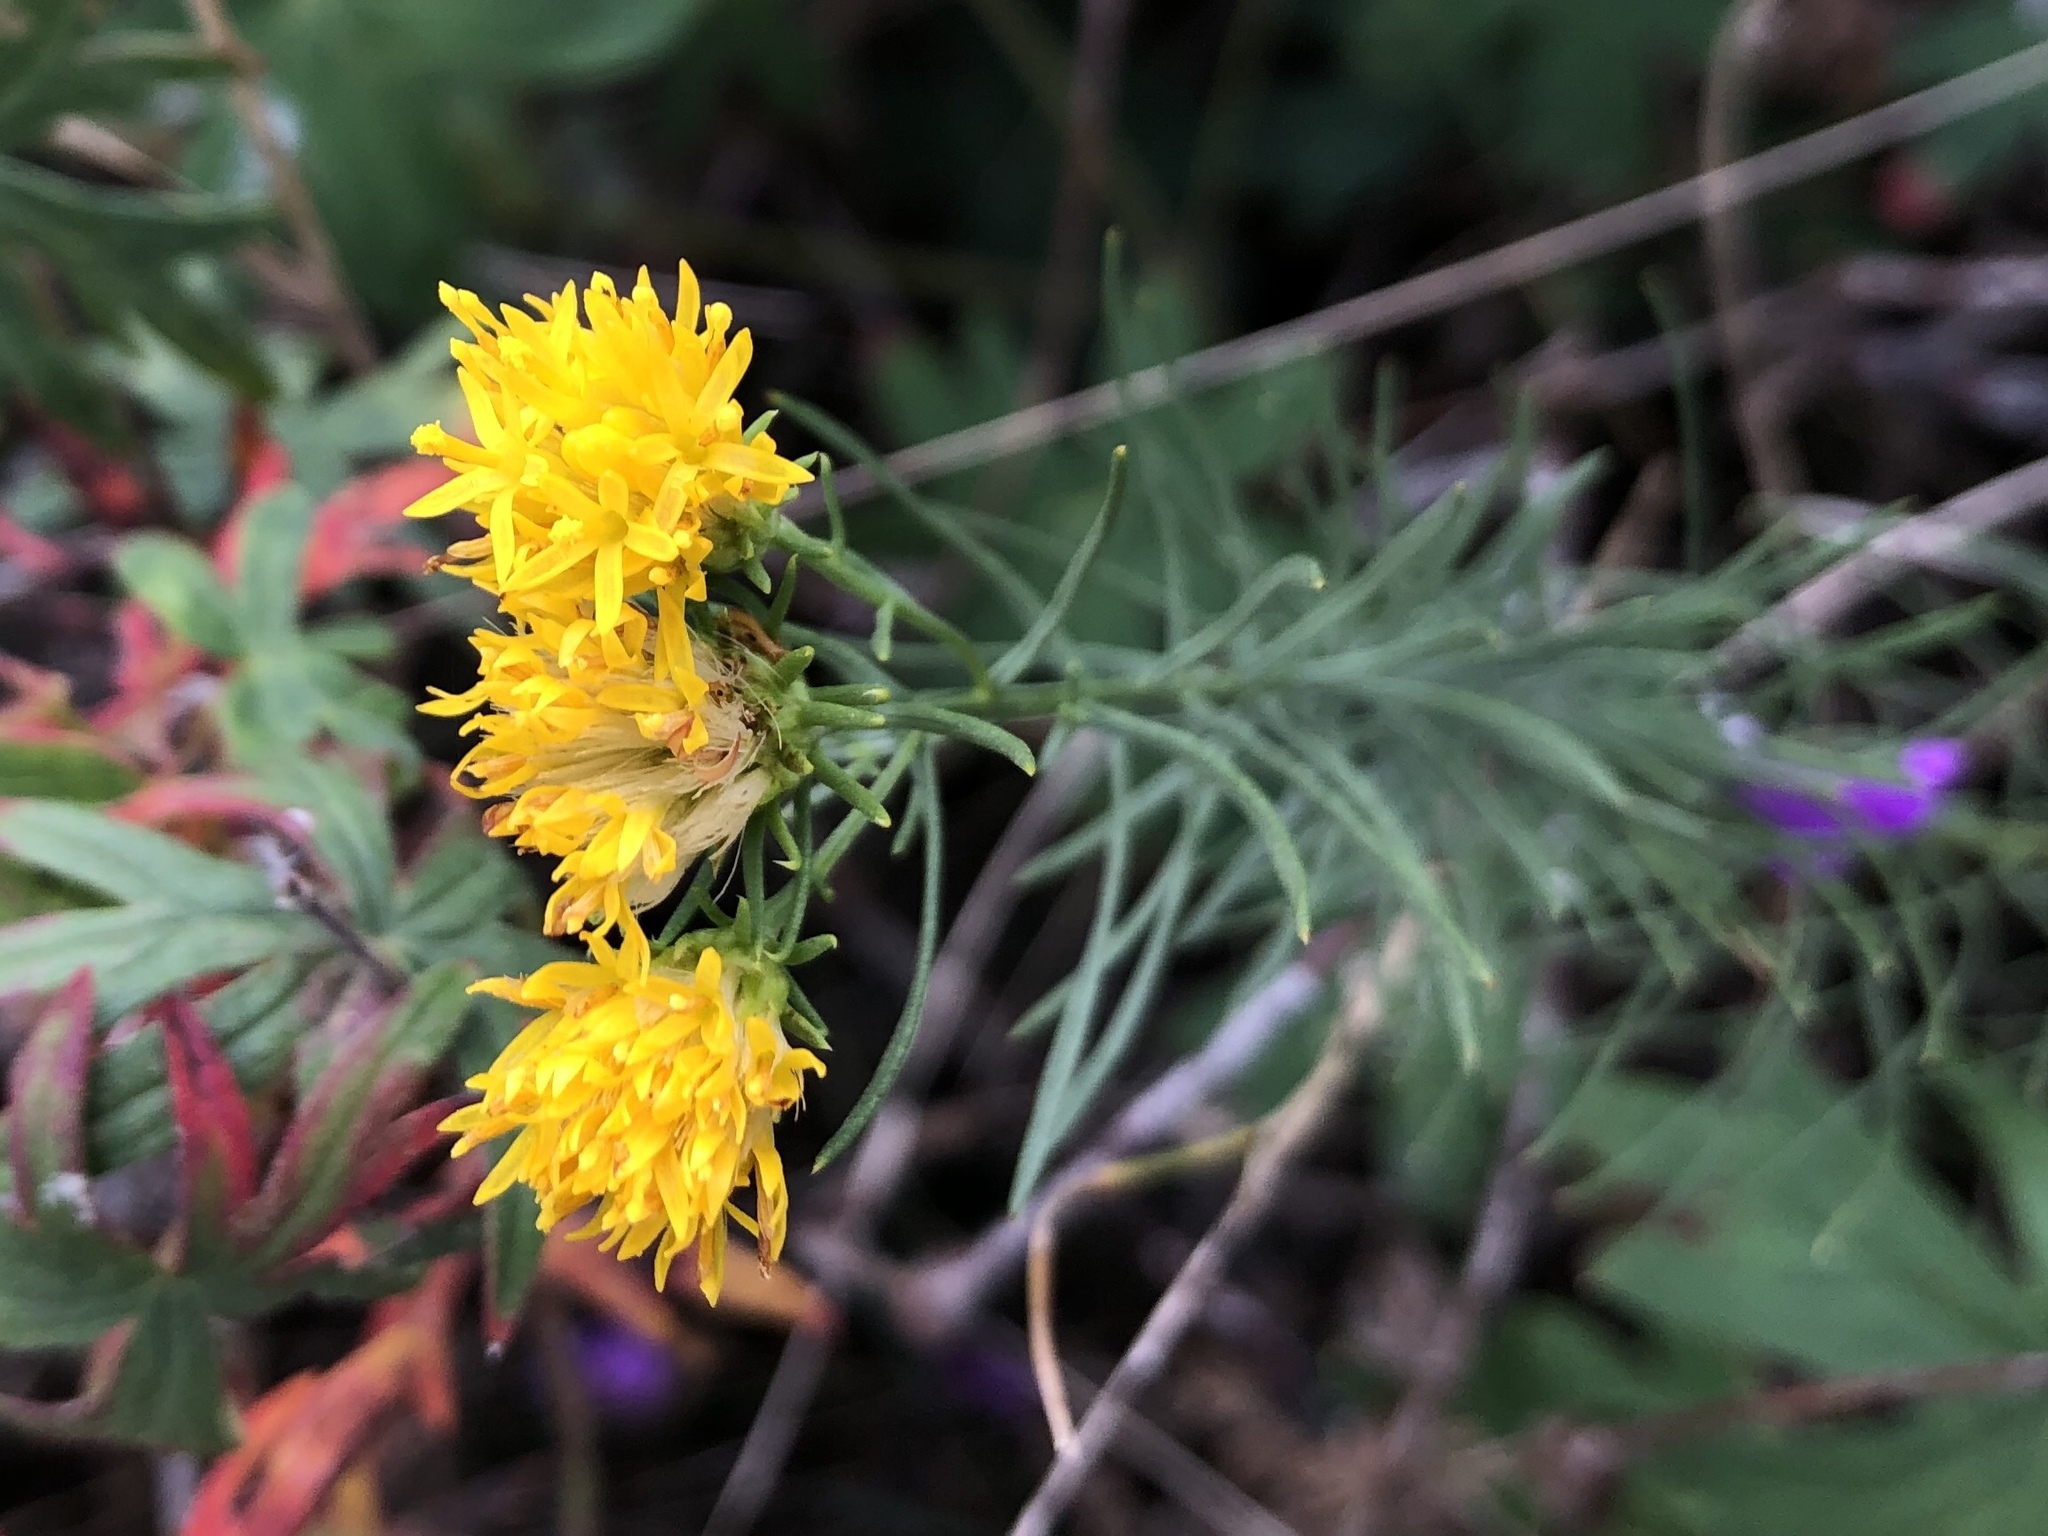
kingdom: Plantae
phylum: Tracheophyta
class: Magnoliopsida
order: Asterales
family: Asteraceae
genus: Galatella
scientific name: Galatella linosyris
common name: Goldilocks aster
